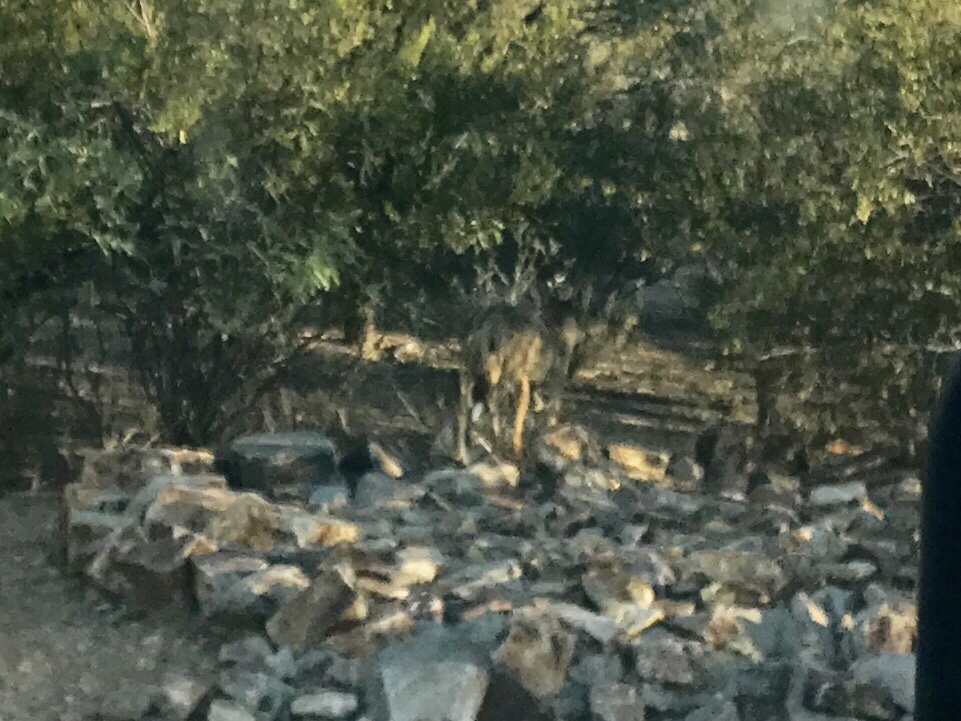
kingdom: Animalia
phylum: Chordata
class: Mammalia
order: Carnivora
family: Canidae
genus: Canis
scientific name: Canis latrans
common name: Coyote
